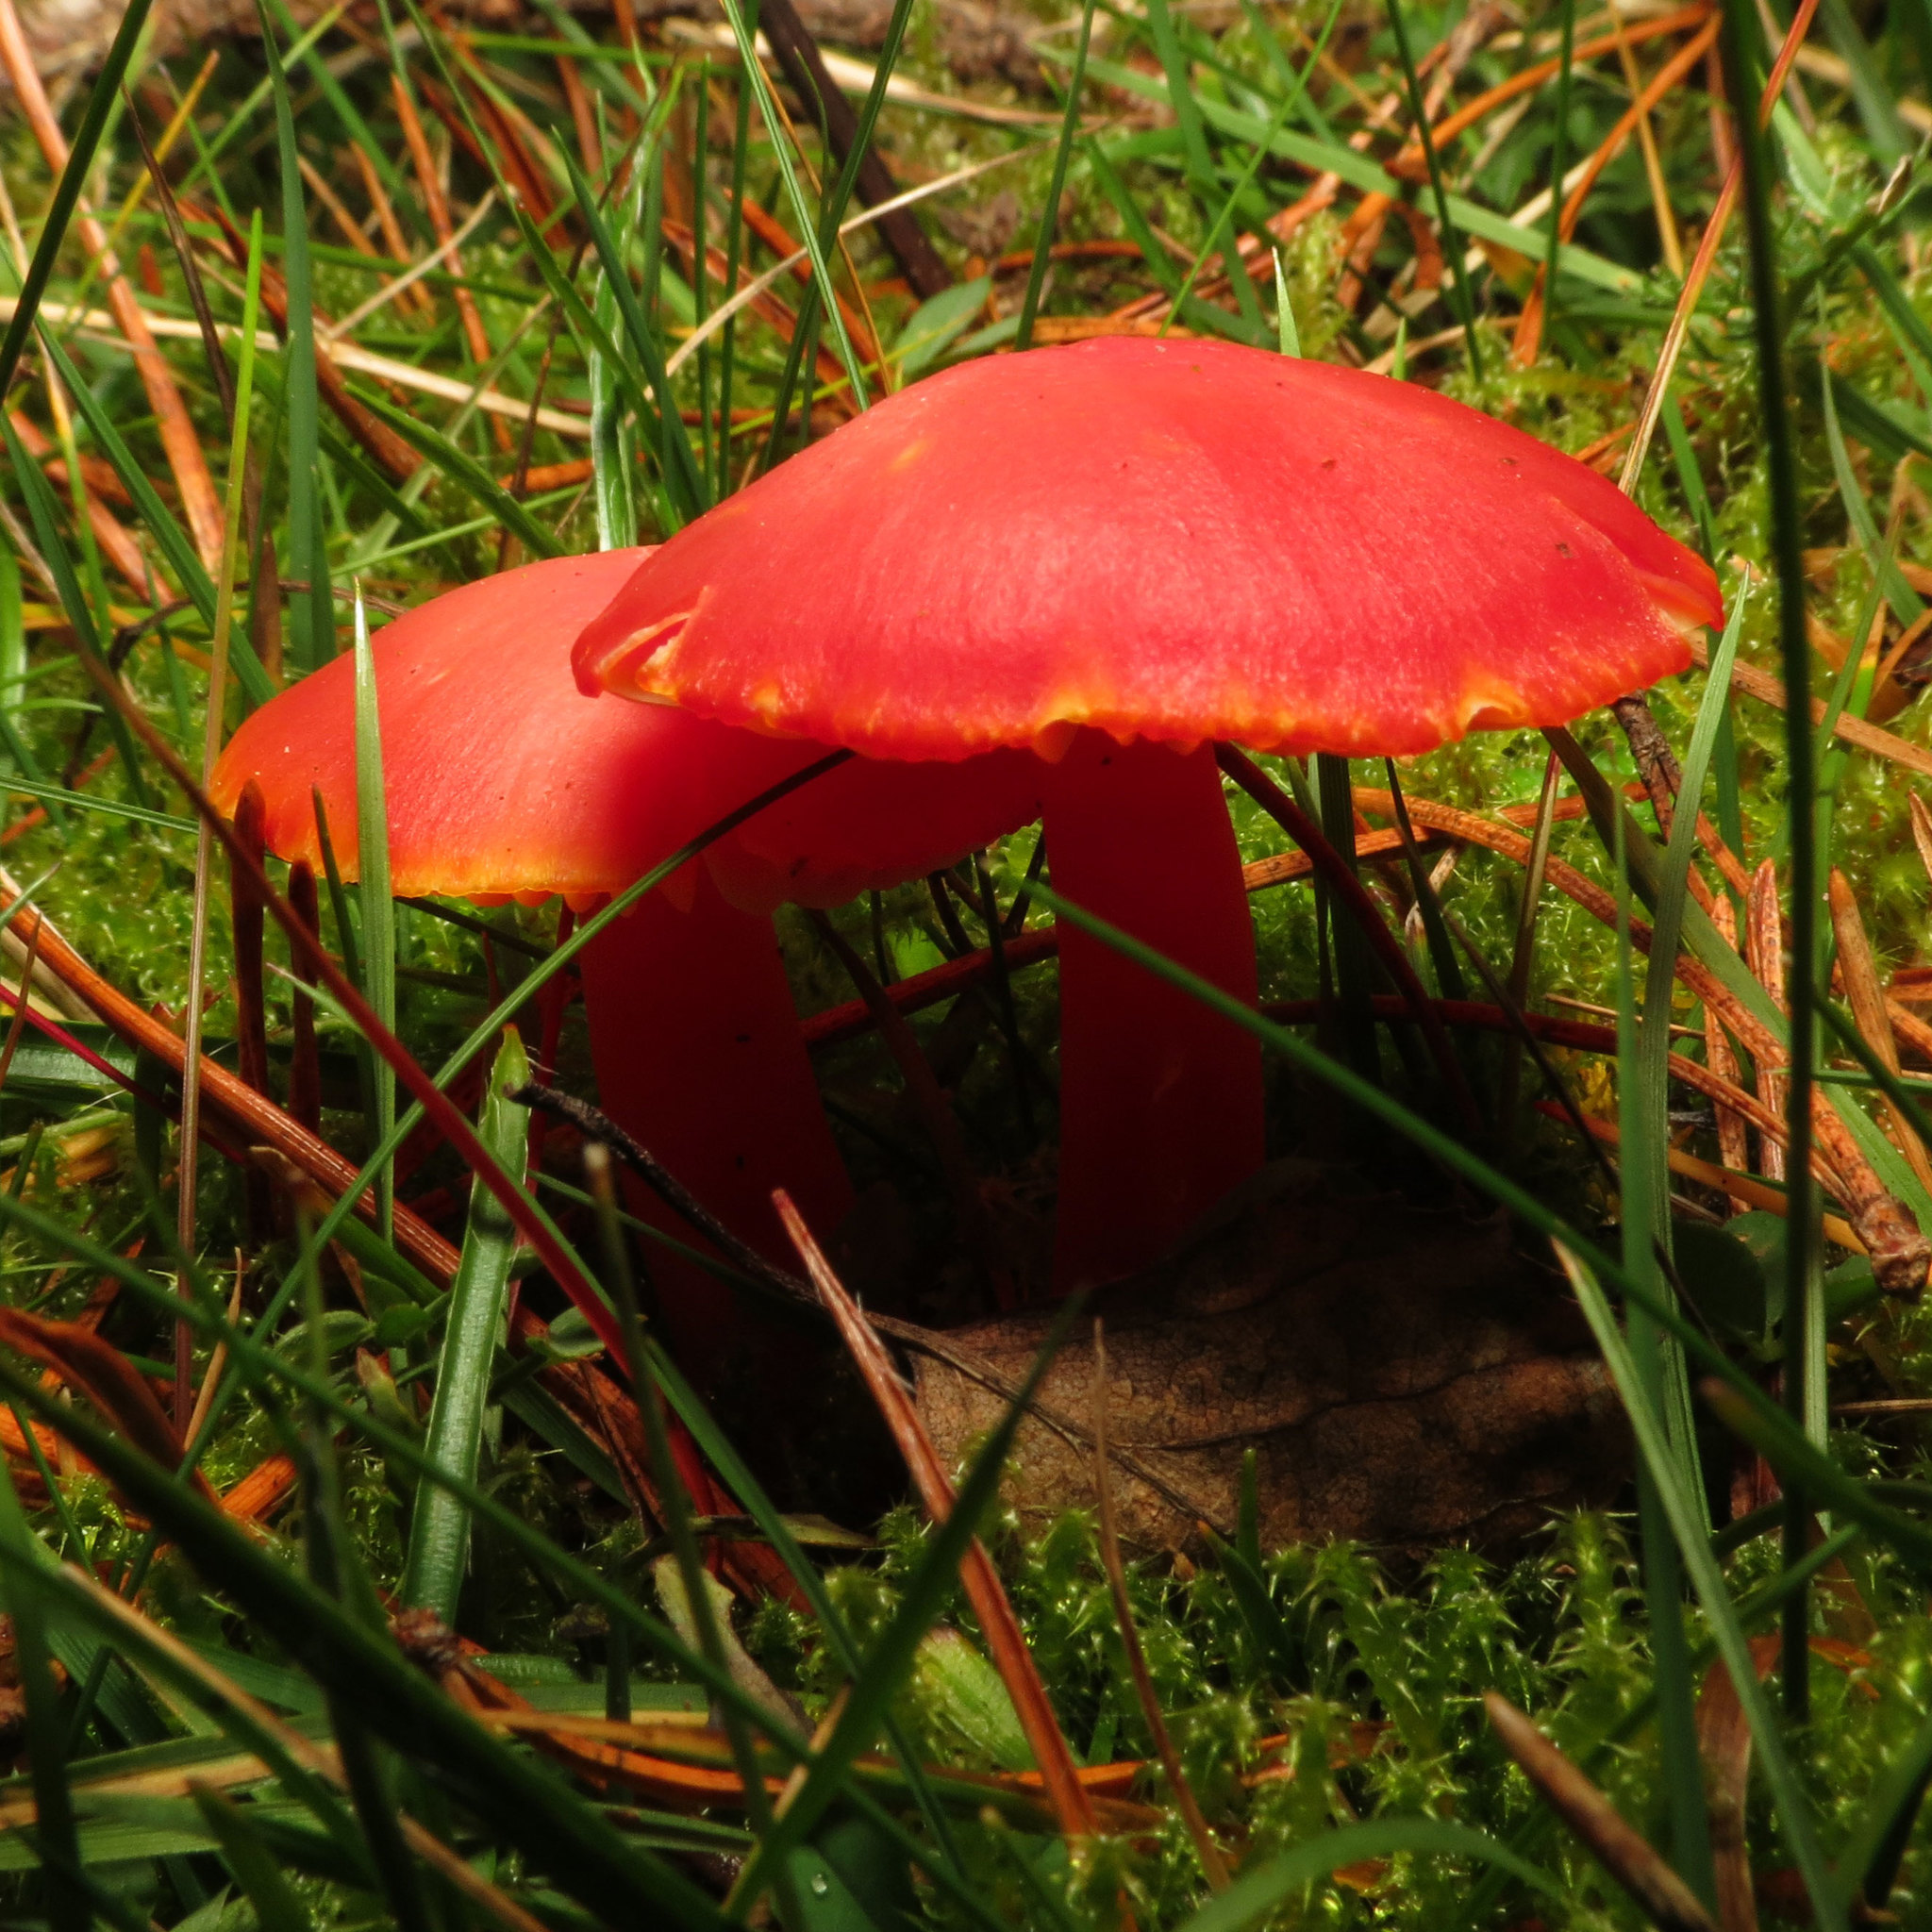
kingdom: Fungi
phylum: Basidiomycota
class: Agaricomycetes
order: Agaricales
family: Hygrophoraceae
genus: Hygrocybe
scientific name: Hygrocybe punicea
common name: Crimson waxcap
